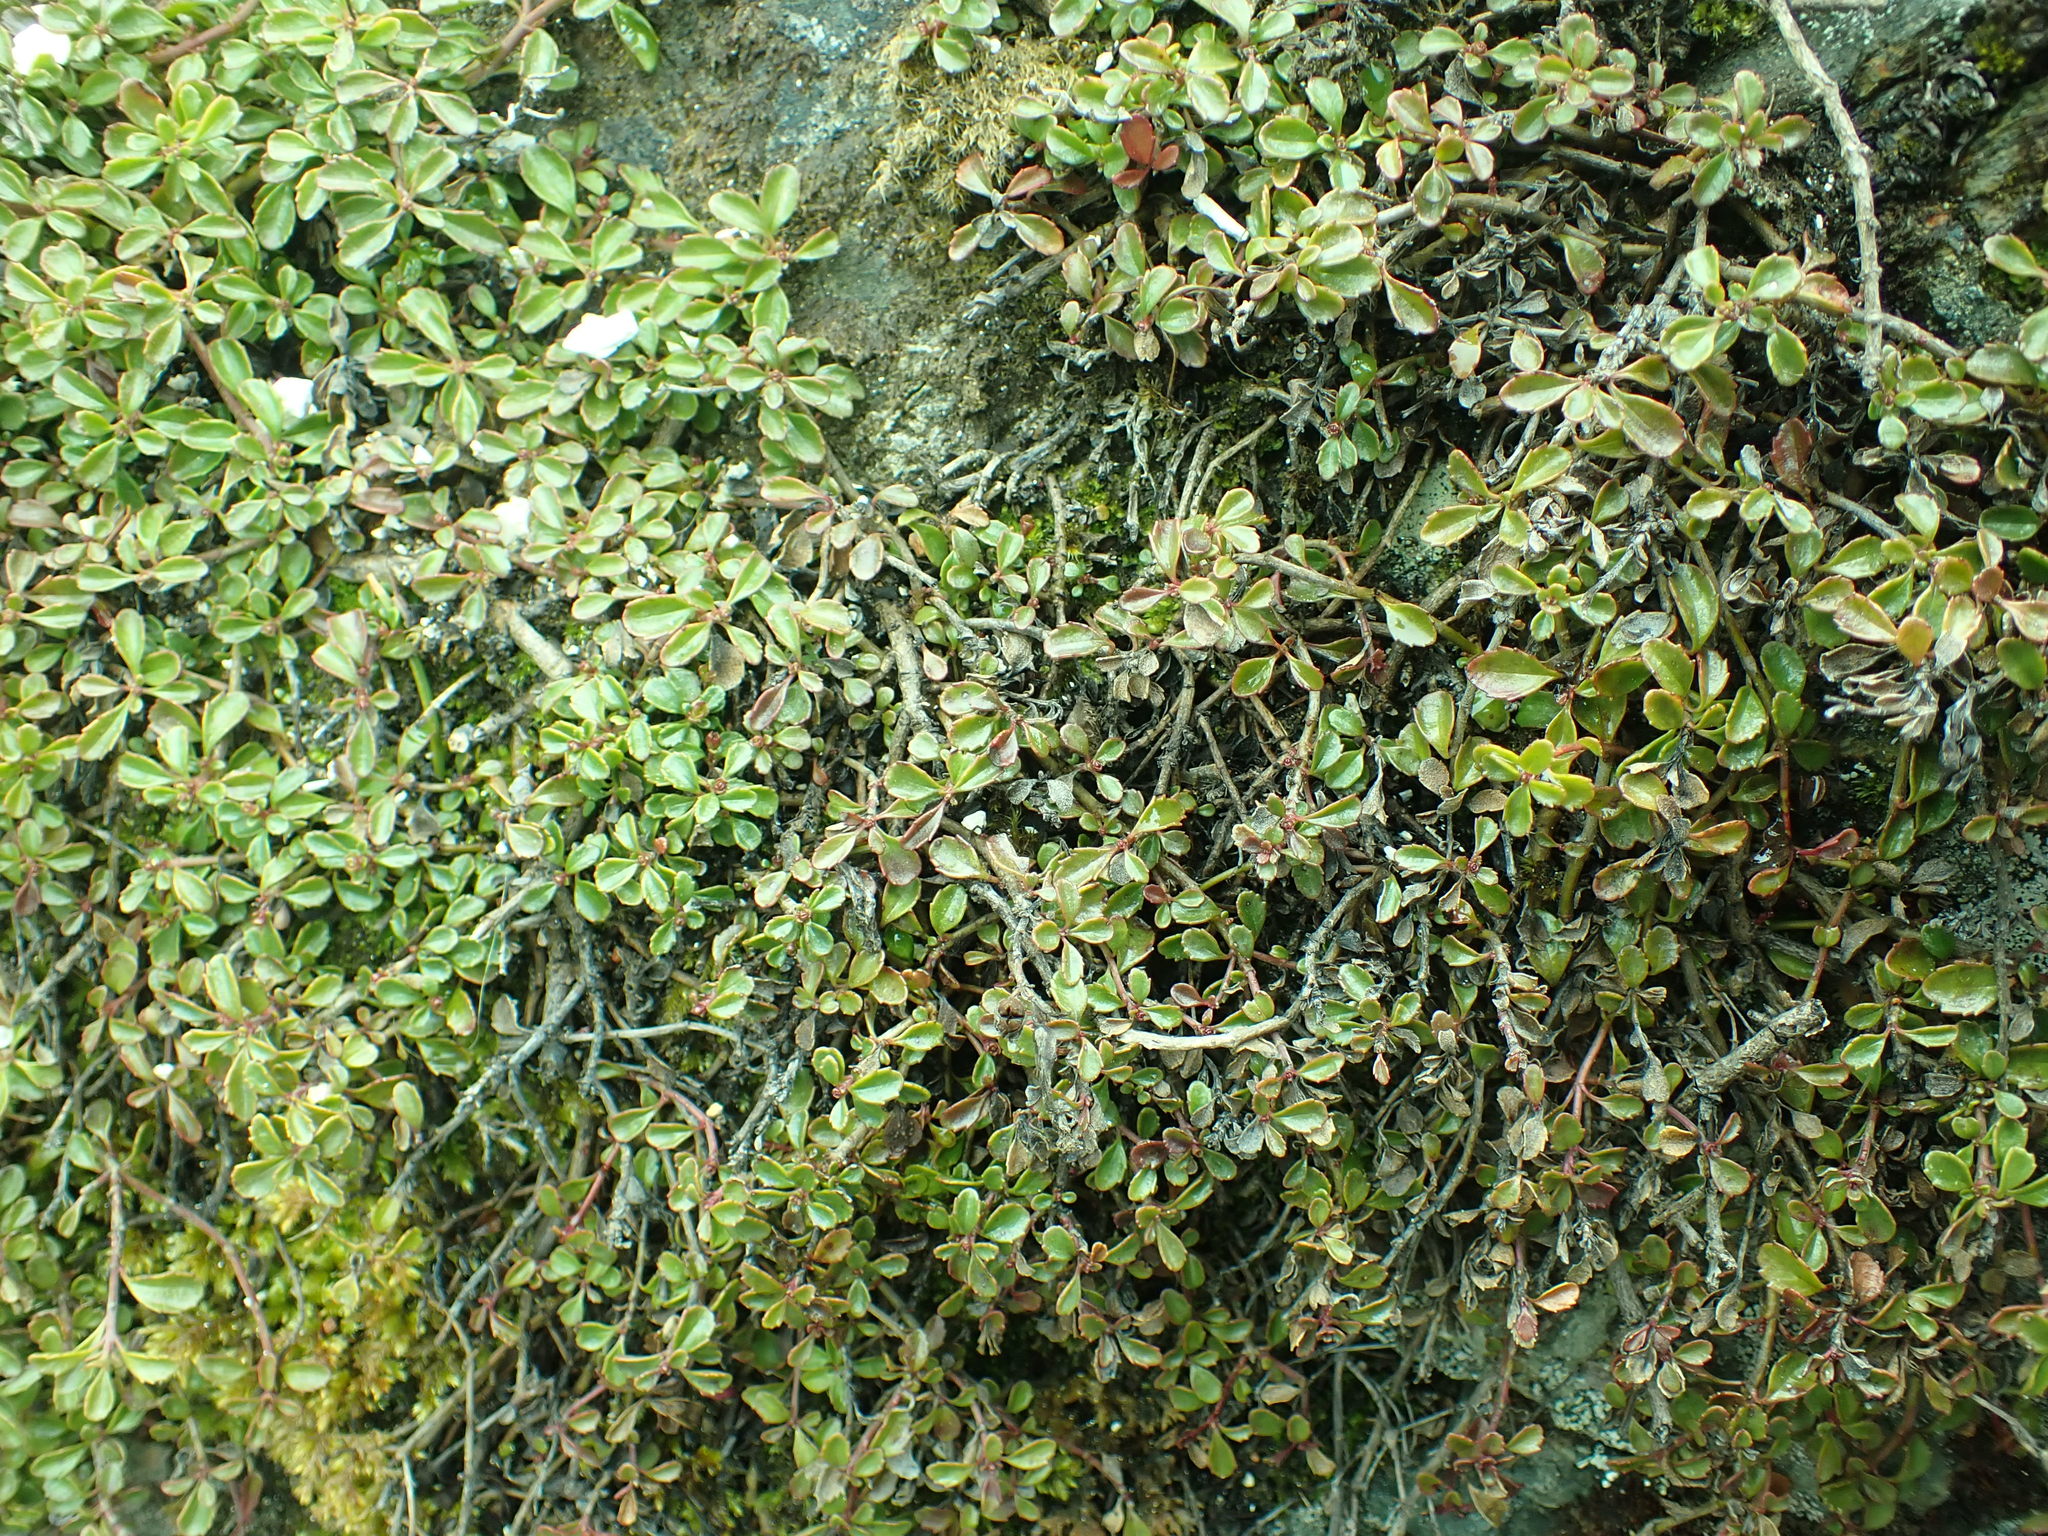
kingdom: Plantae
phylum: Tracheophyta
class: Magnoliopsida
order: Lamiales
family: Plantaginaceae
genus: Penstemon
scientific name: Penstemon davidsonii
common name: Davidson's penstemon
